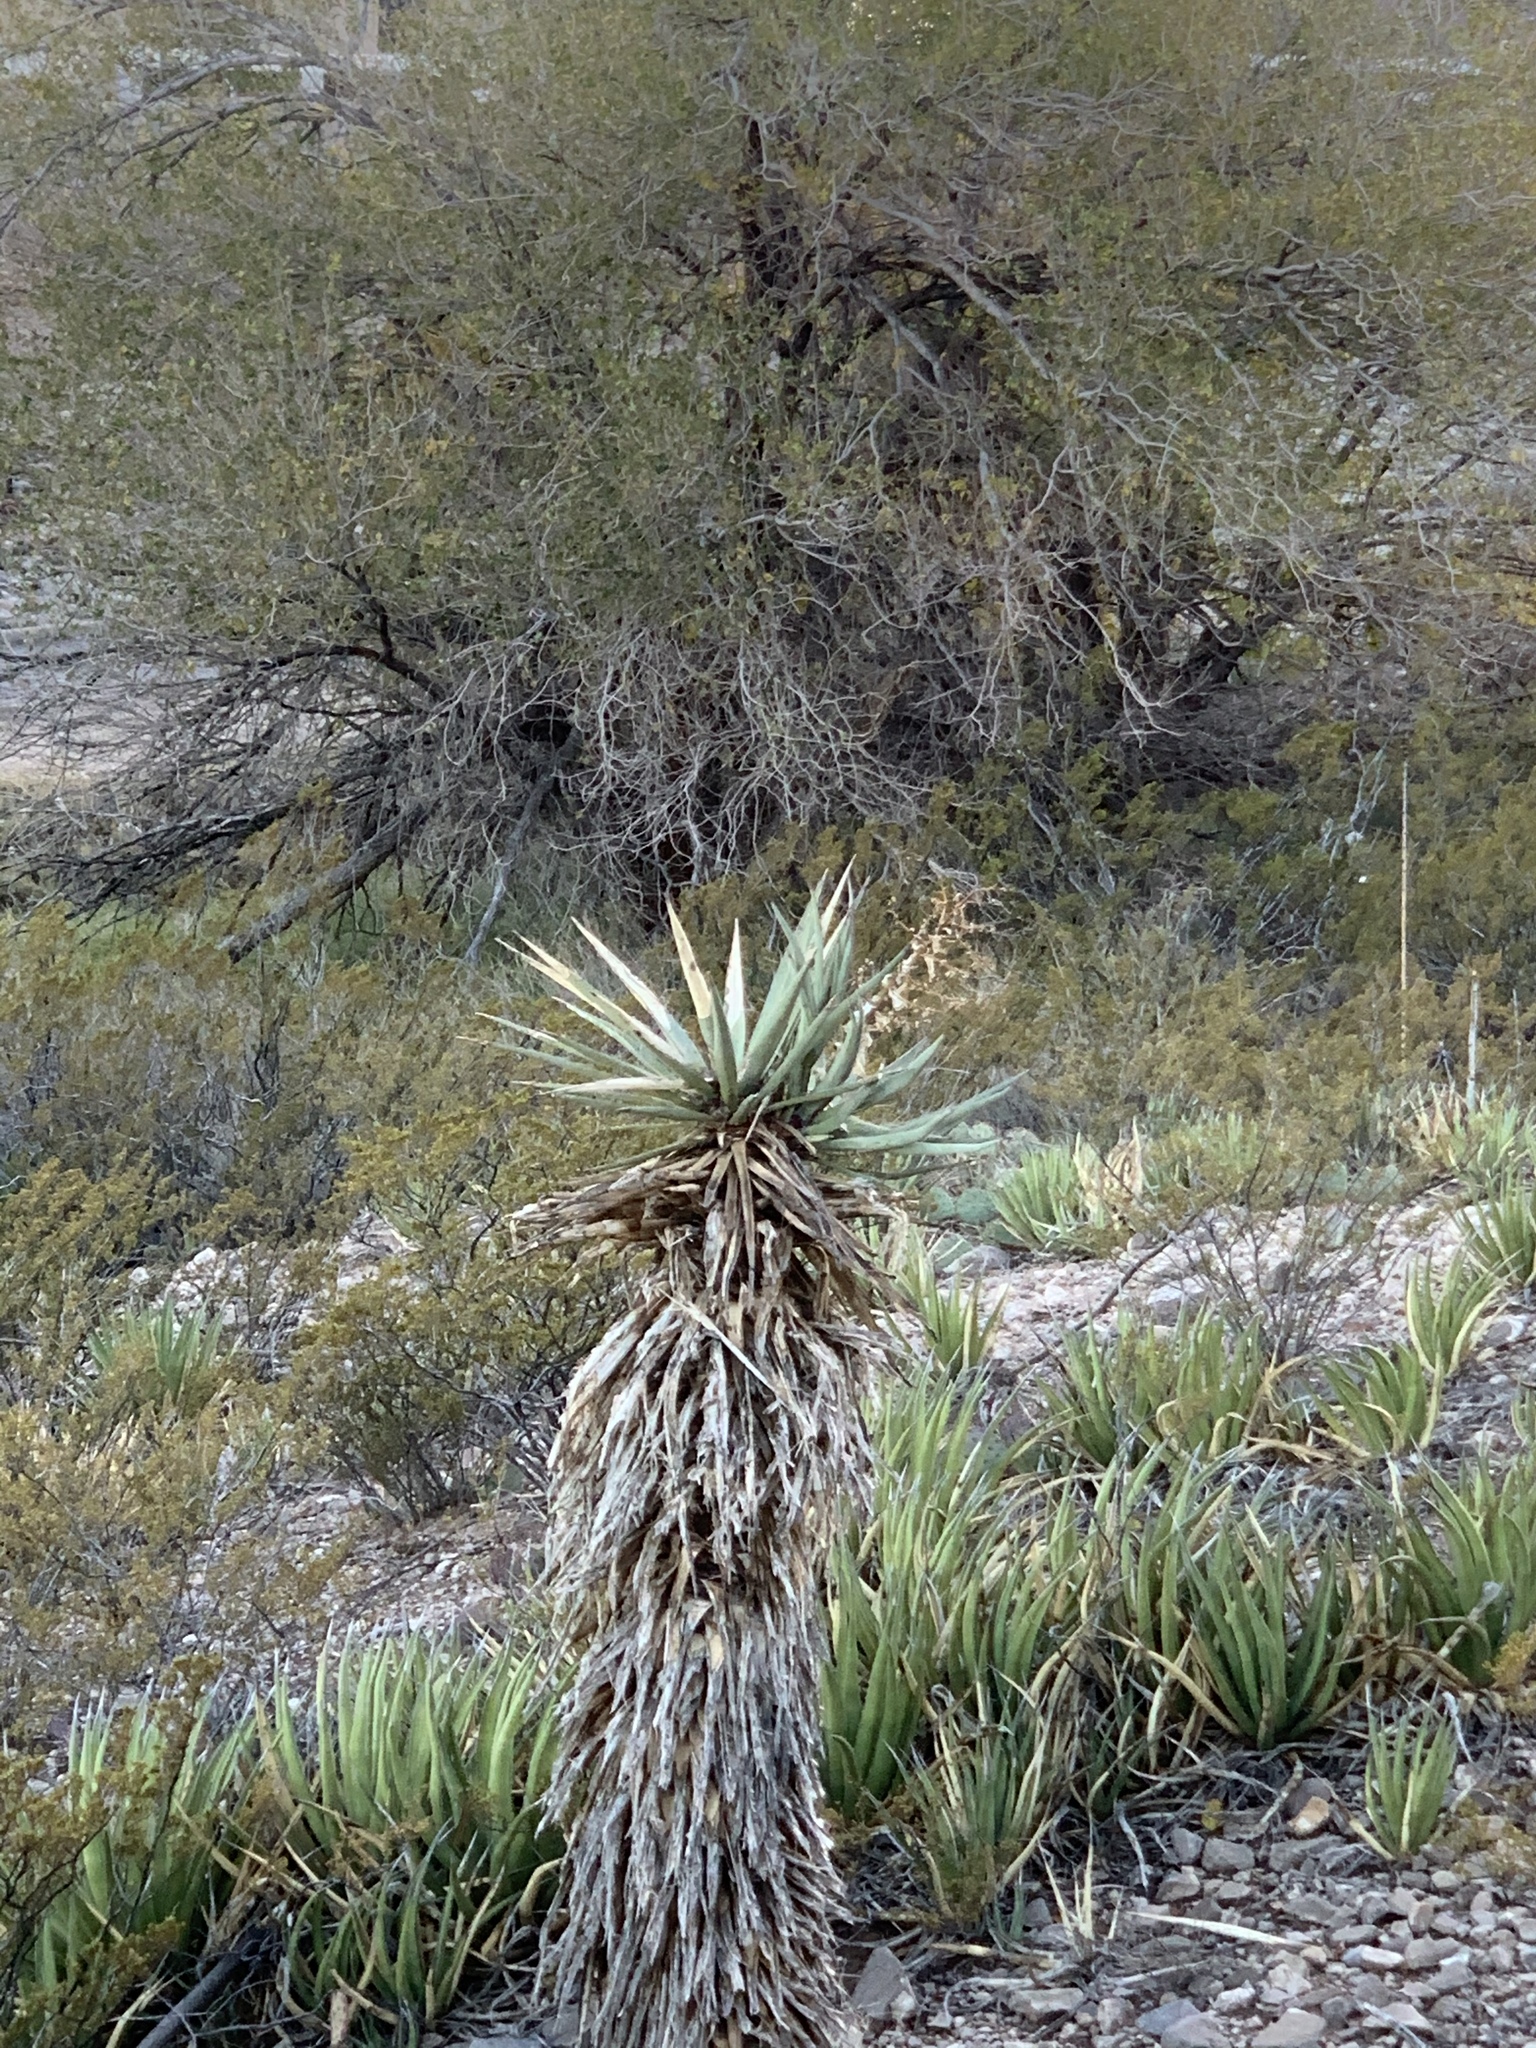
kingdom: Plantae
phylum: Tracheophyta
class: Liliopsida
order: Asparagales
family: Asparagaceae
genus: Yucca
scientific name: Yucca treculiana
